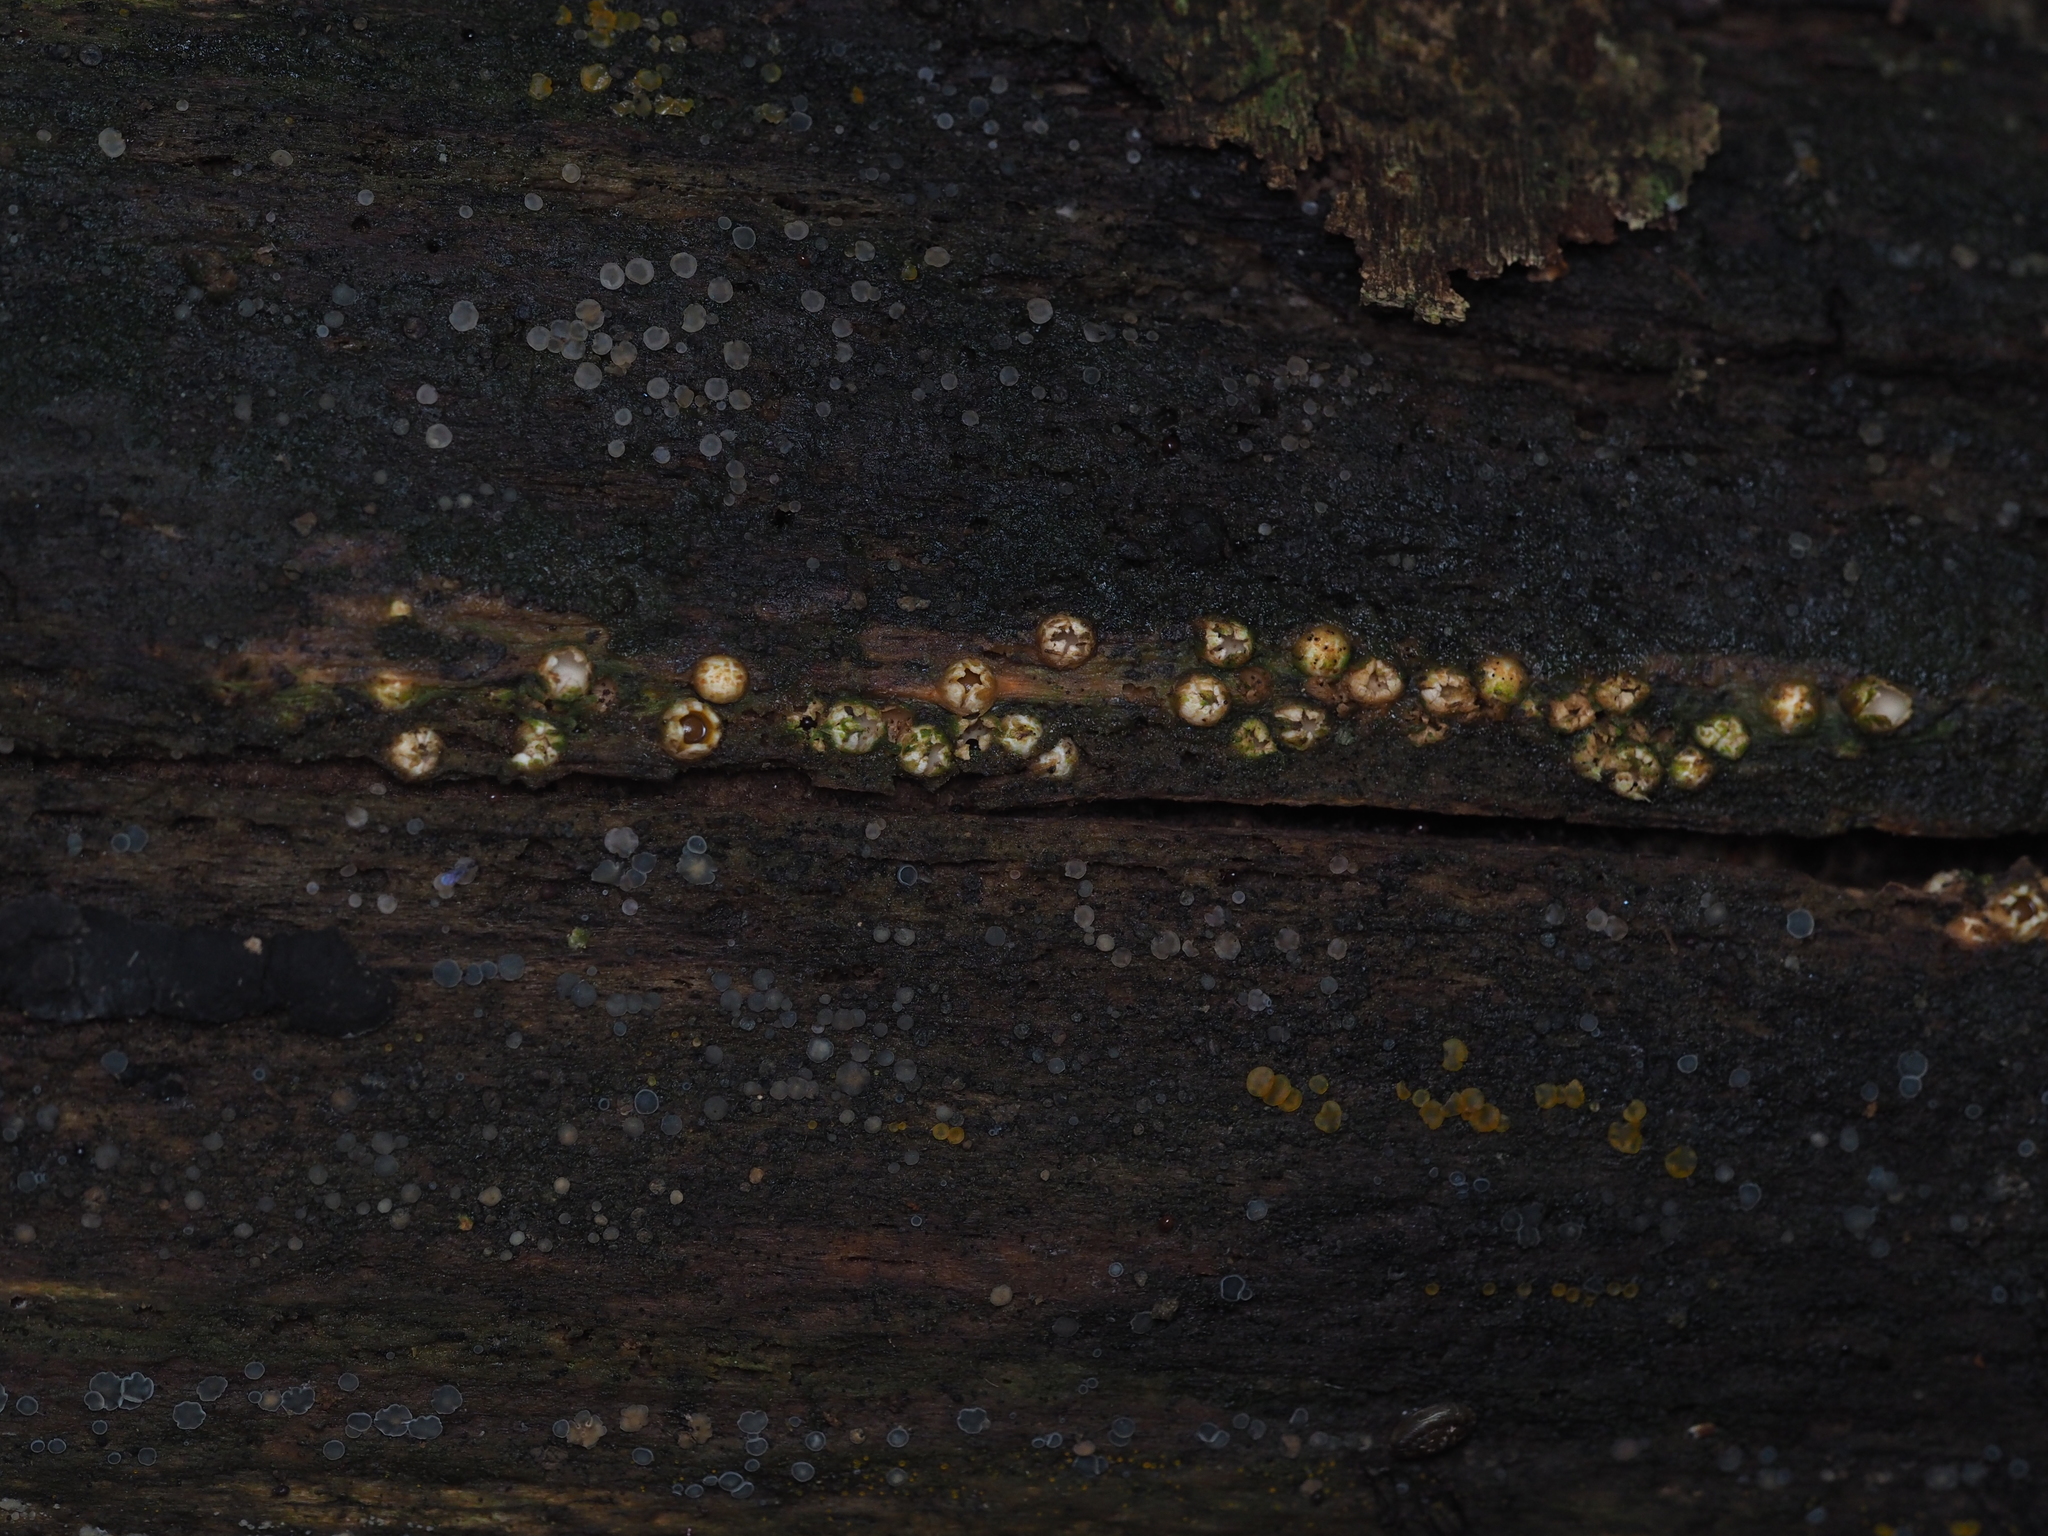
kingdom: Fungi
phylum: Basidiomycota
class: Agaricomycetes
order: Geastrales
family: Geastraceae
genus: Sphaerobolus
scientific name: Sphaerobolus stellatus
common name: Cannon fungus
